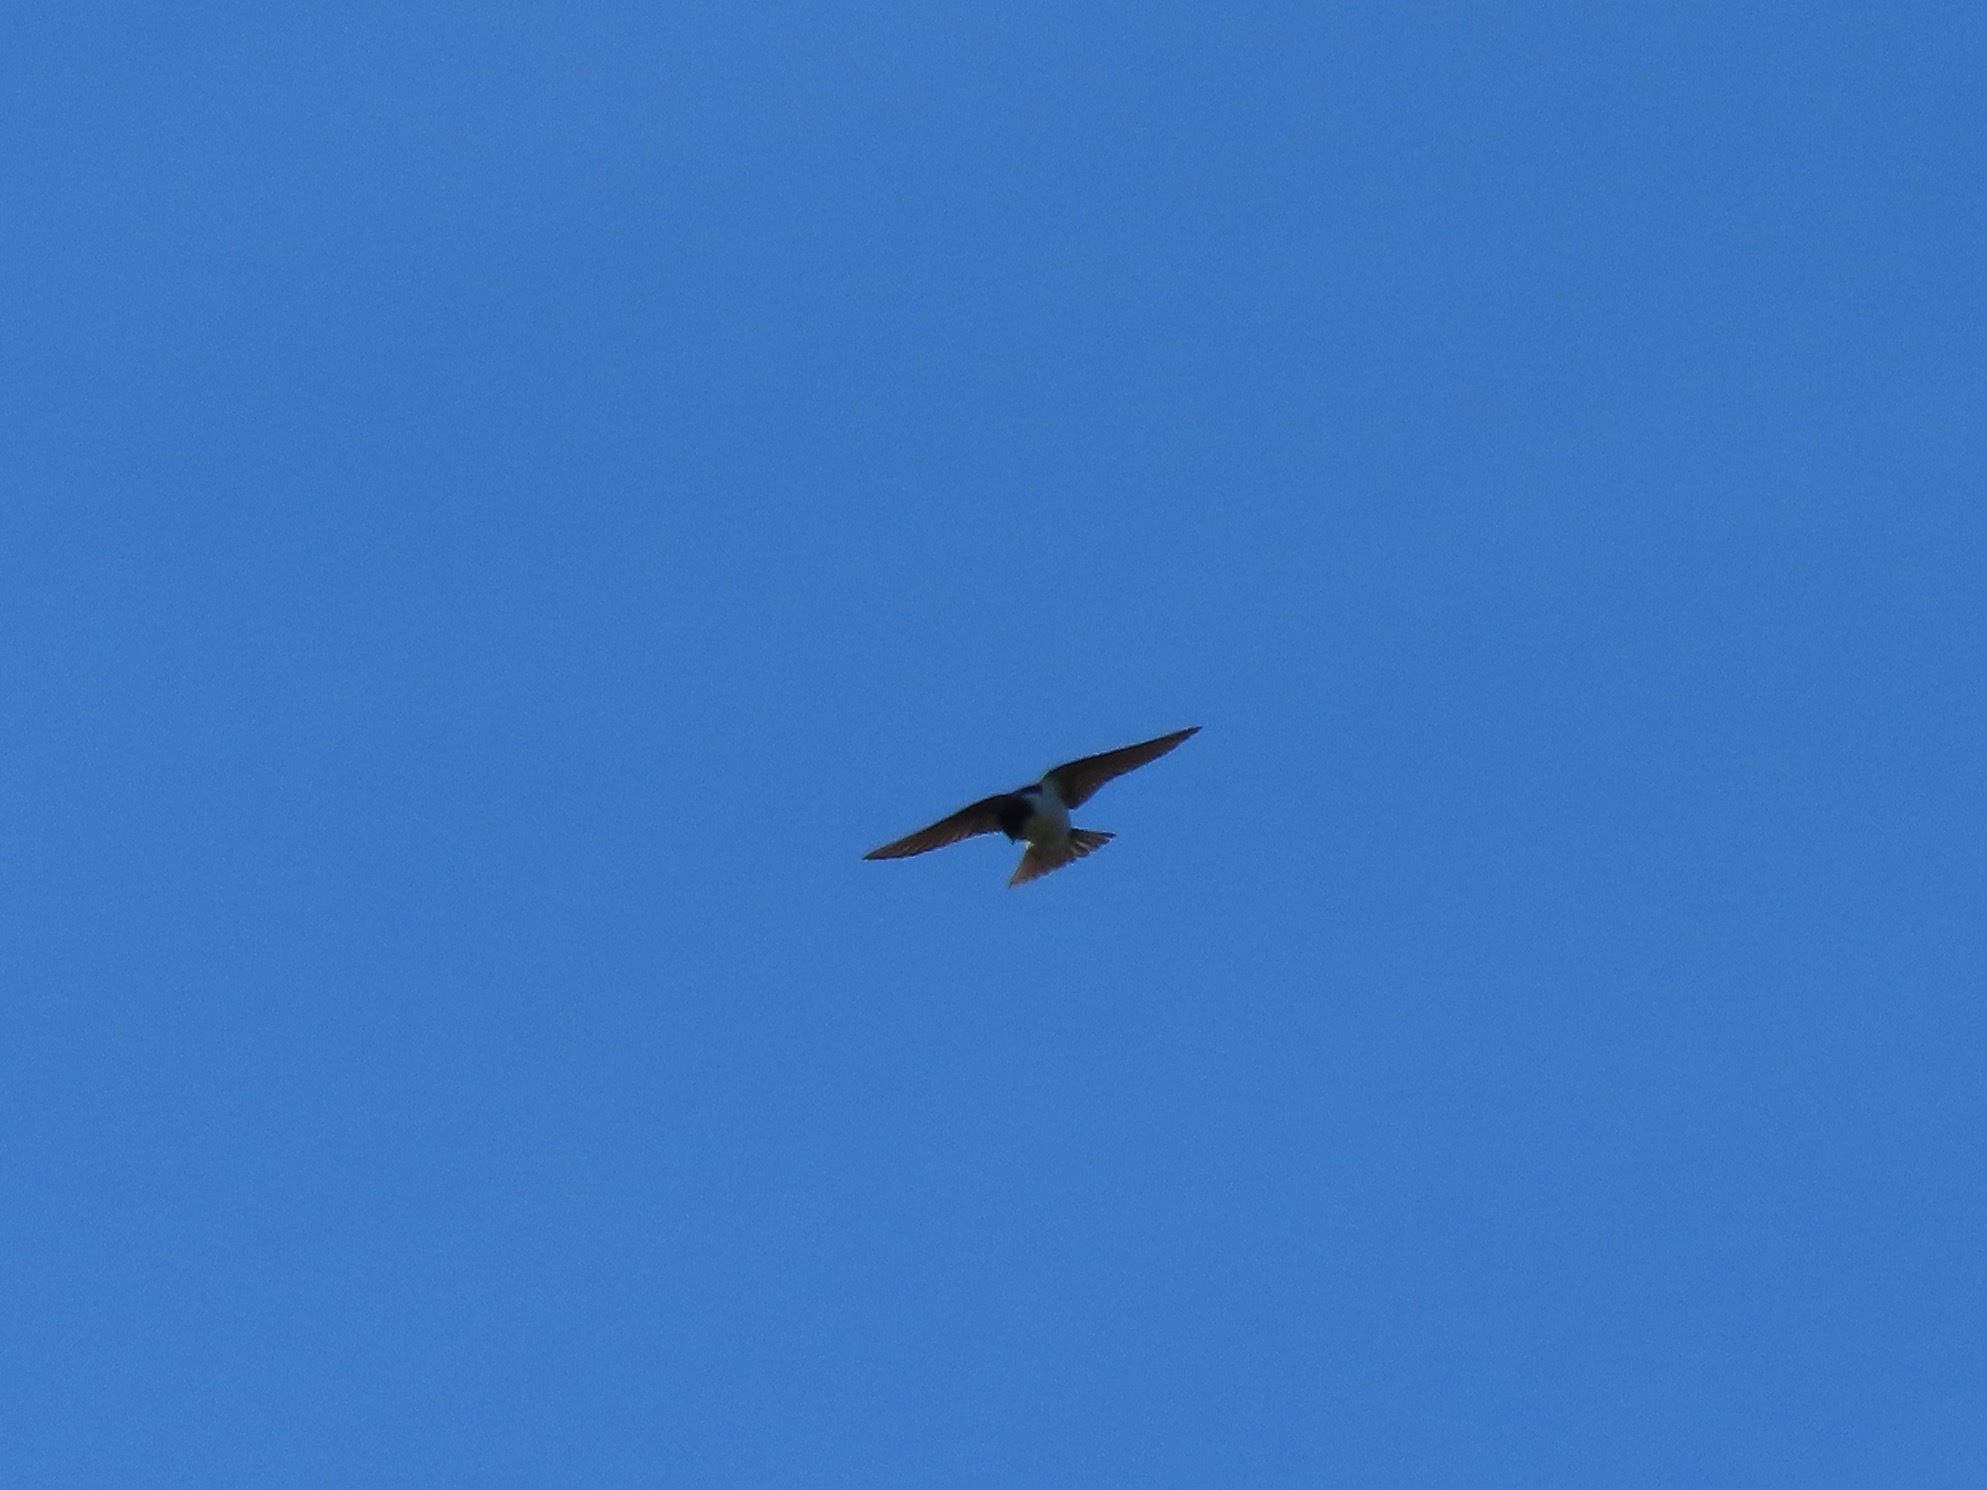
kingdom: Animalia
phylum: Chordata
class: Aves
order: Passeriformes
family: Hirundinidae
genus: Tachycineta
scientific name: Tachycineta thalassina
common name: Violet-green swallow
